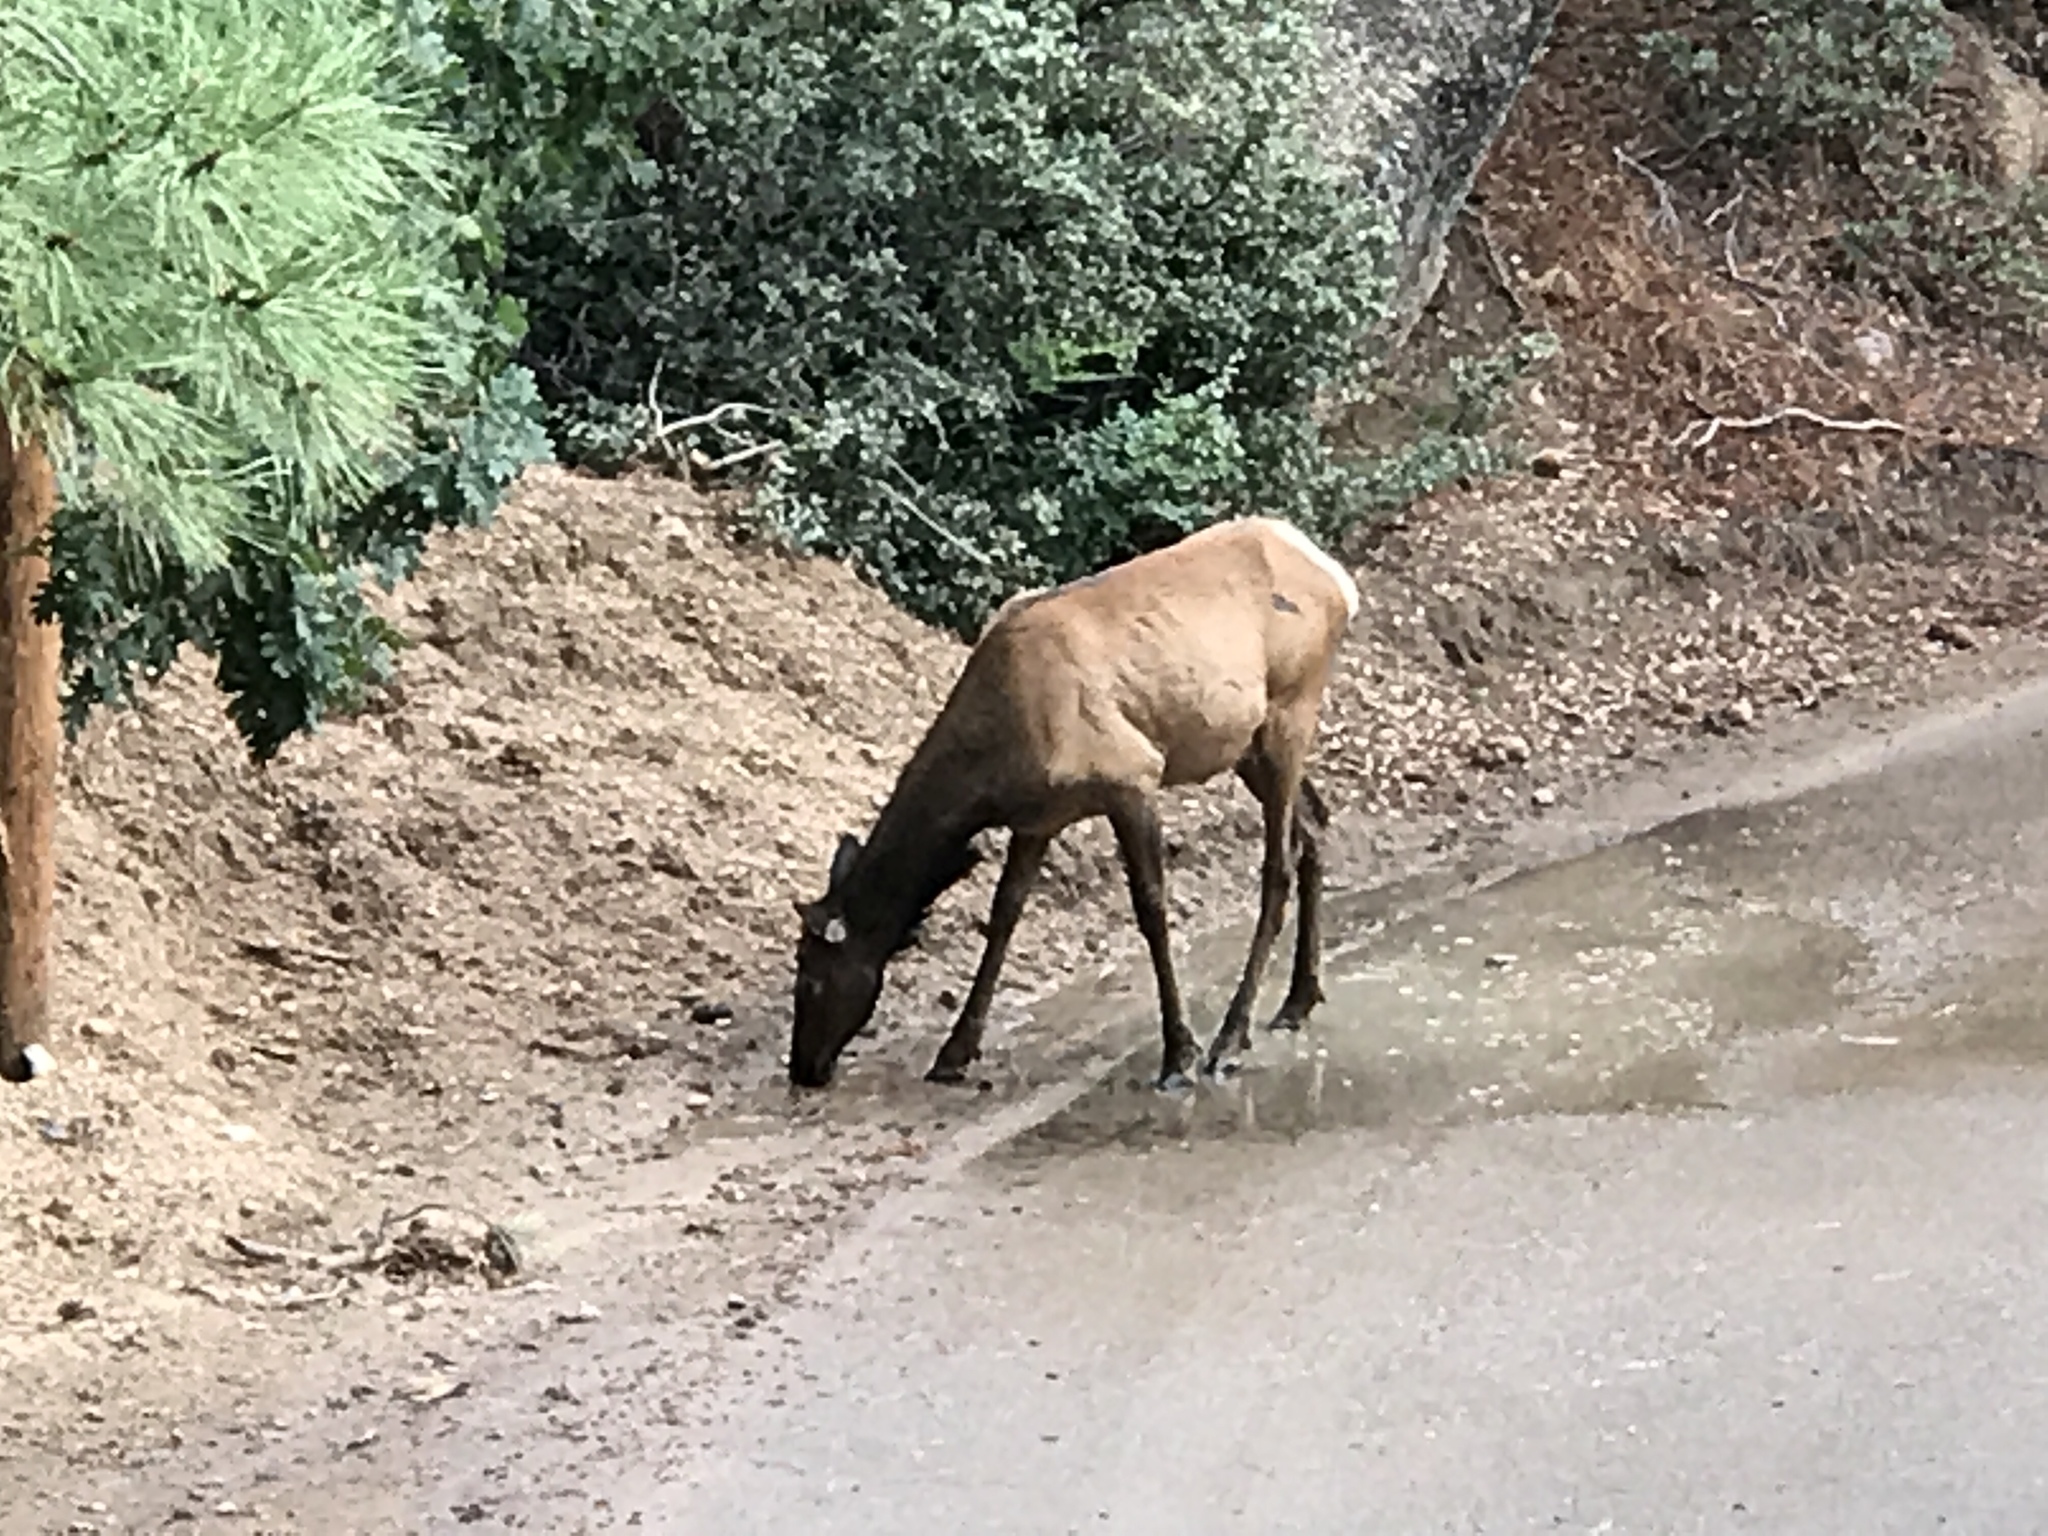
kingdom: Animalia
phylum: Chordata
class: Mammalia
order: Artiodactyla
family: Cervidae
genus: Cervus
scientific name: Cervus elaphus
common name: Red deer
